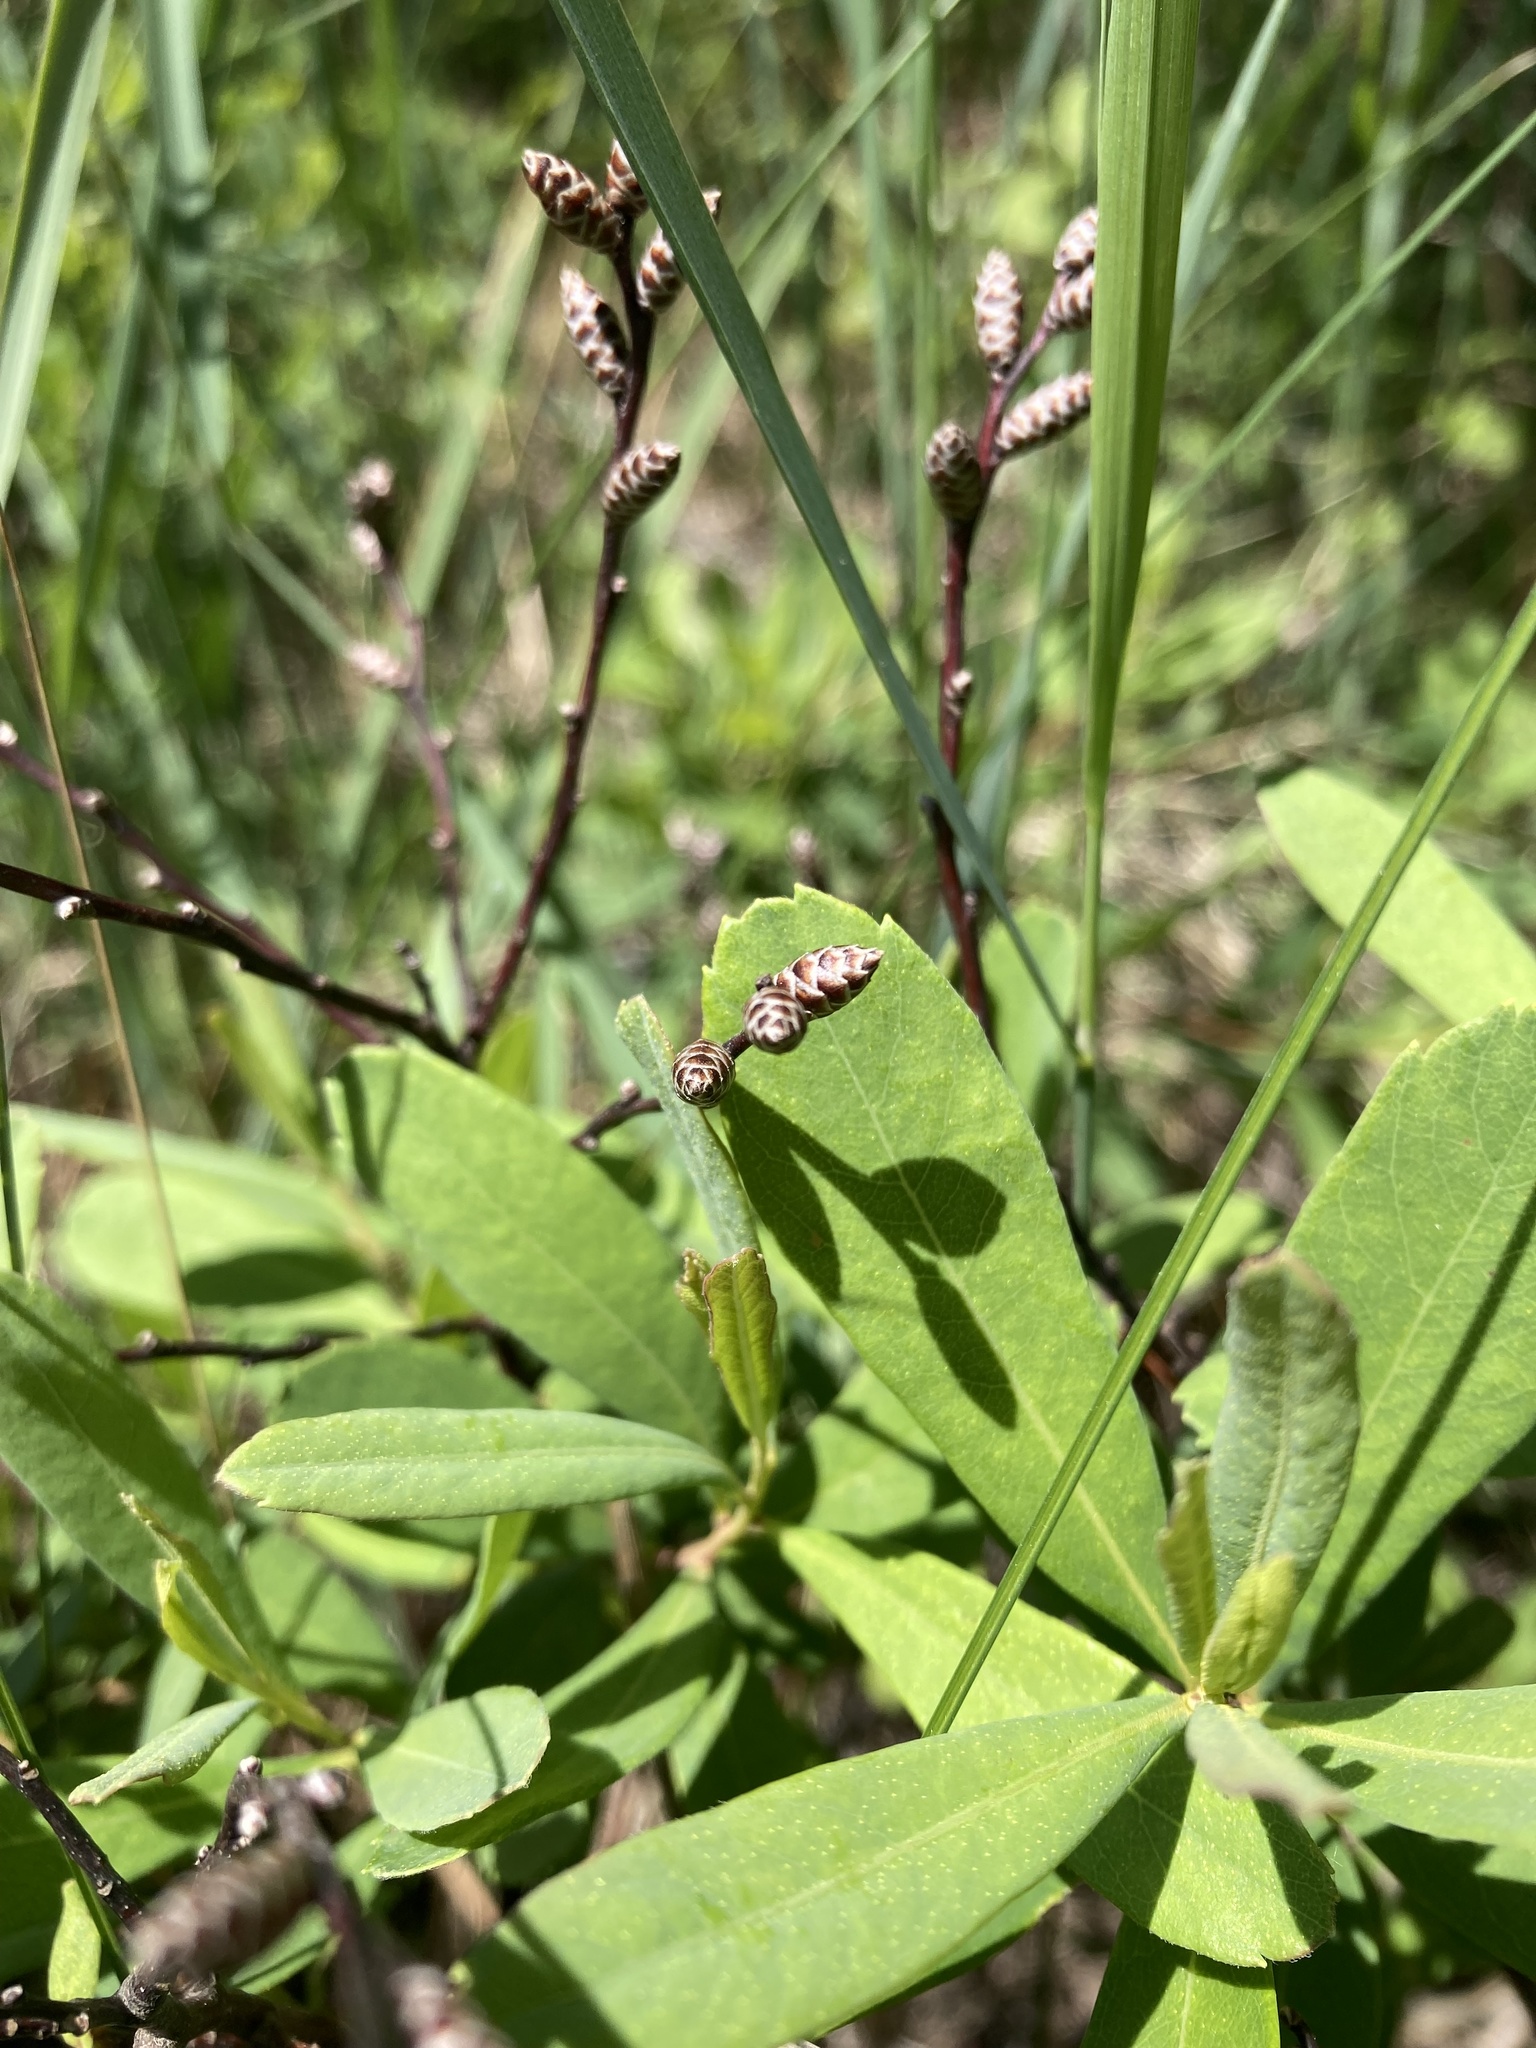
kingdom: Plantae
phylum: Tracheophyta
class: Magnoliopsida
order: Fagales
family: Myricaceae
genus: Myrica
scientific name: Myrica gale
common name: Sweet gale
